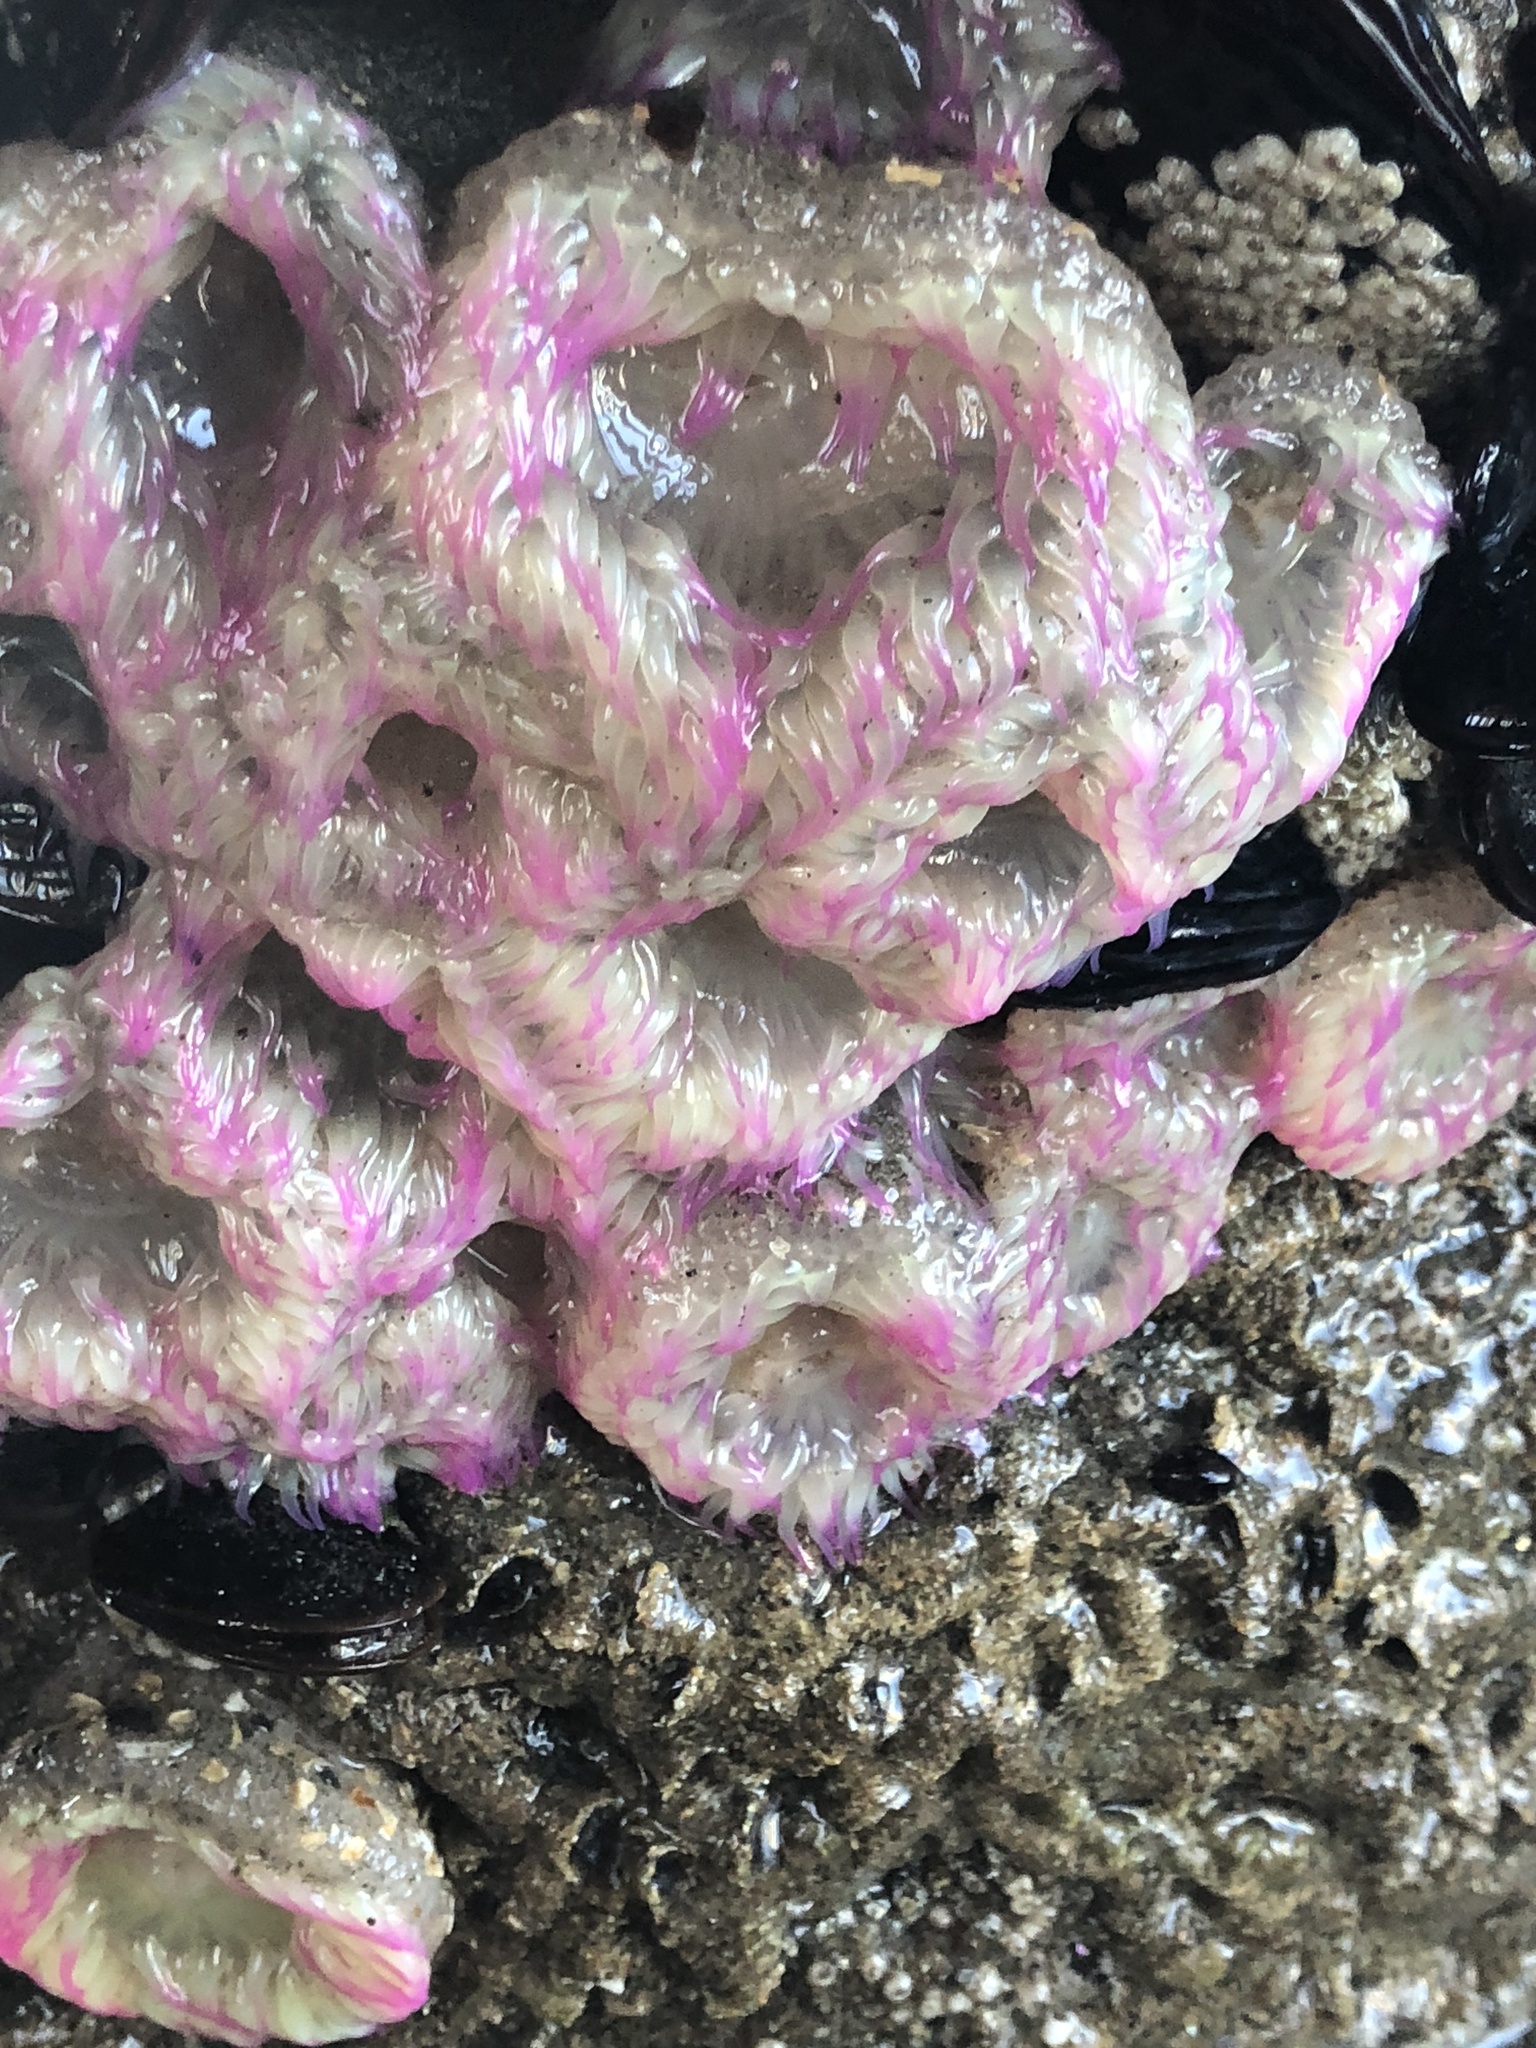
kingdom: Animalia
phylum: Cnidaria
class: Anthozoa
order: Actiniaria
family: Actiniidae
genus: Anthopleura
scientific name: Anthopleura elegantissima
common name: Clonal anemone
